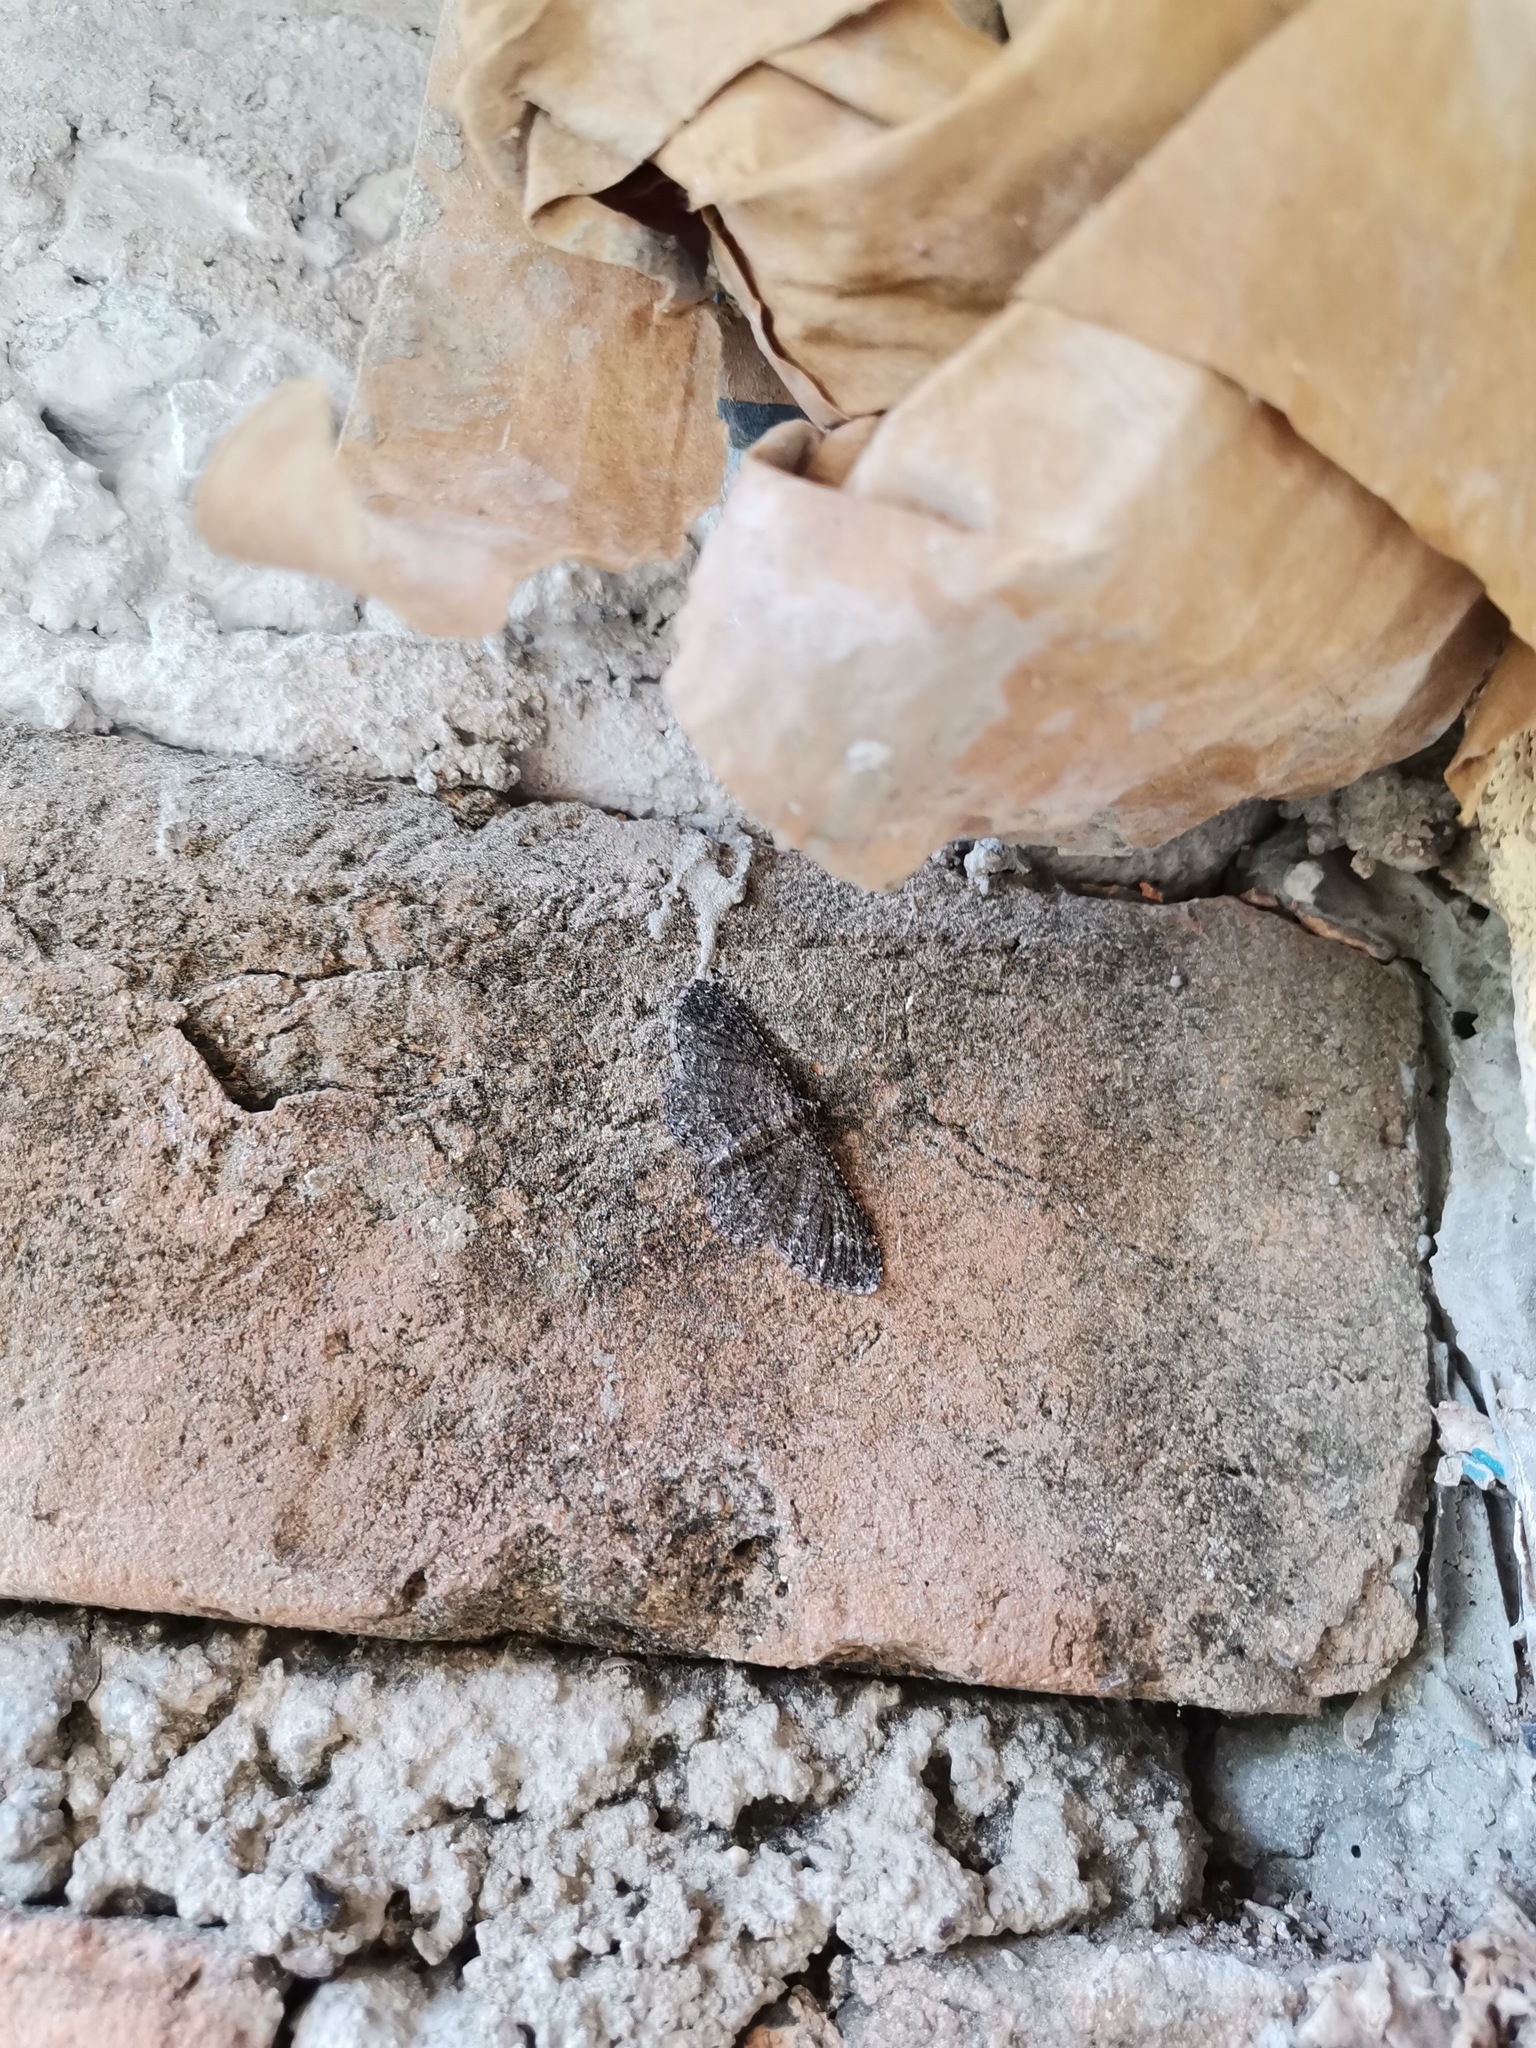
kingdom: Animalia
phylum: Arthropoda
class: Insecta
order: Lepidoptera
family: Geometridae
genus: Disclisioprocta
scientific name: Disclisioprocta stellata
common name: Somber carpet
